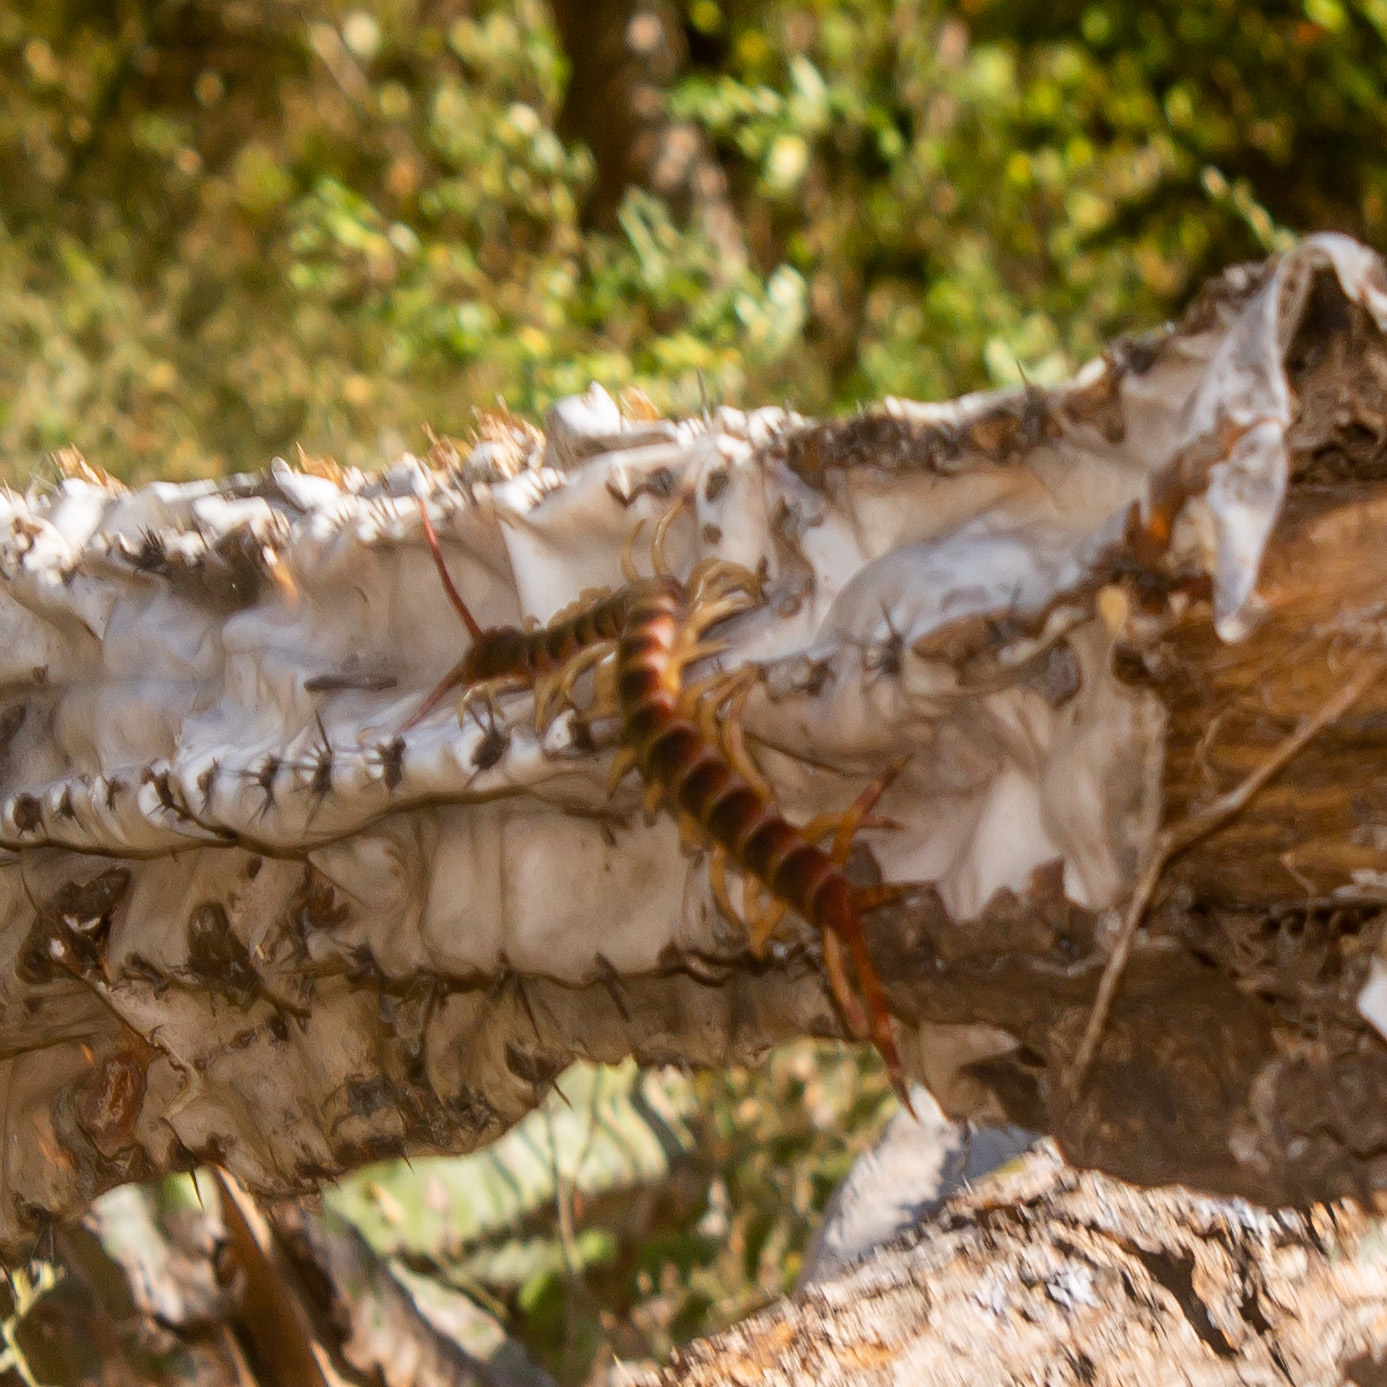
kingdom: Animalia
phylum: Arthropoda
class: Chilopoda
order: Scolopendromorpha
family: Scolopendridae
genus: Scolopendra
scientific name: Scolopendra gigantea
